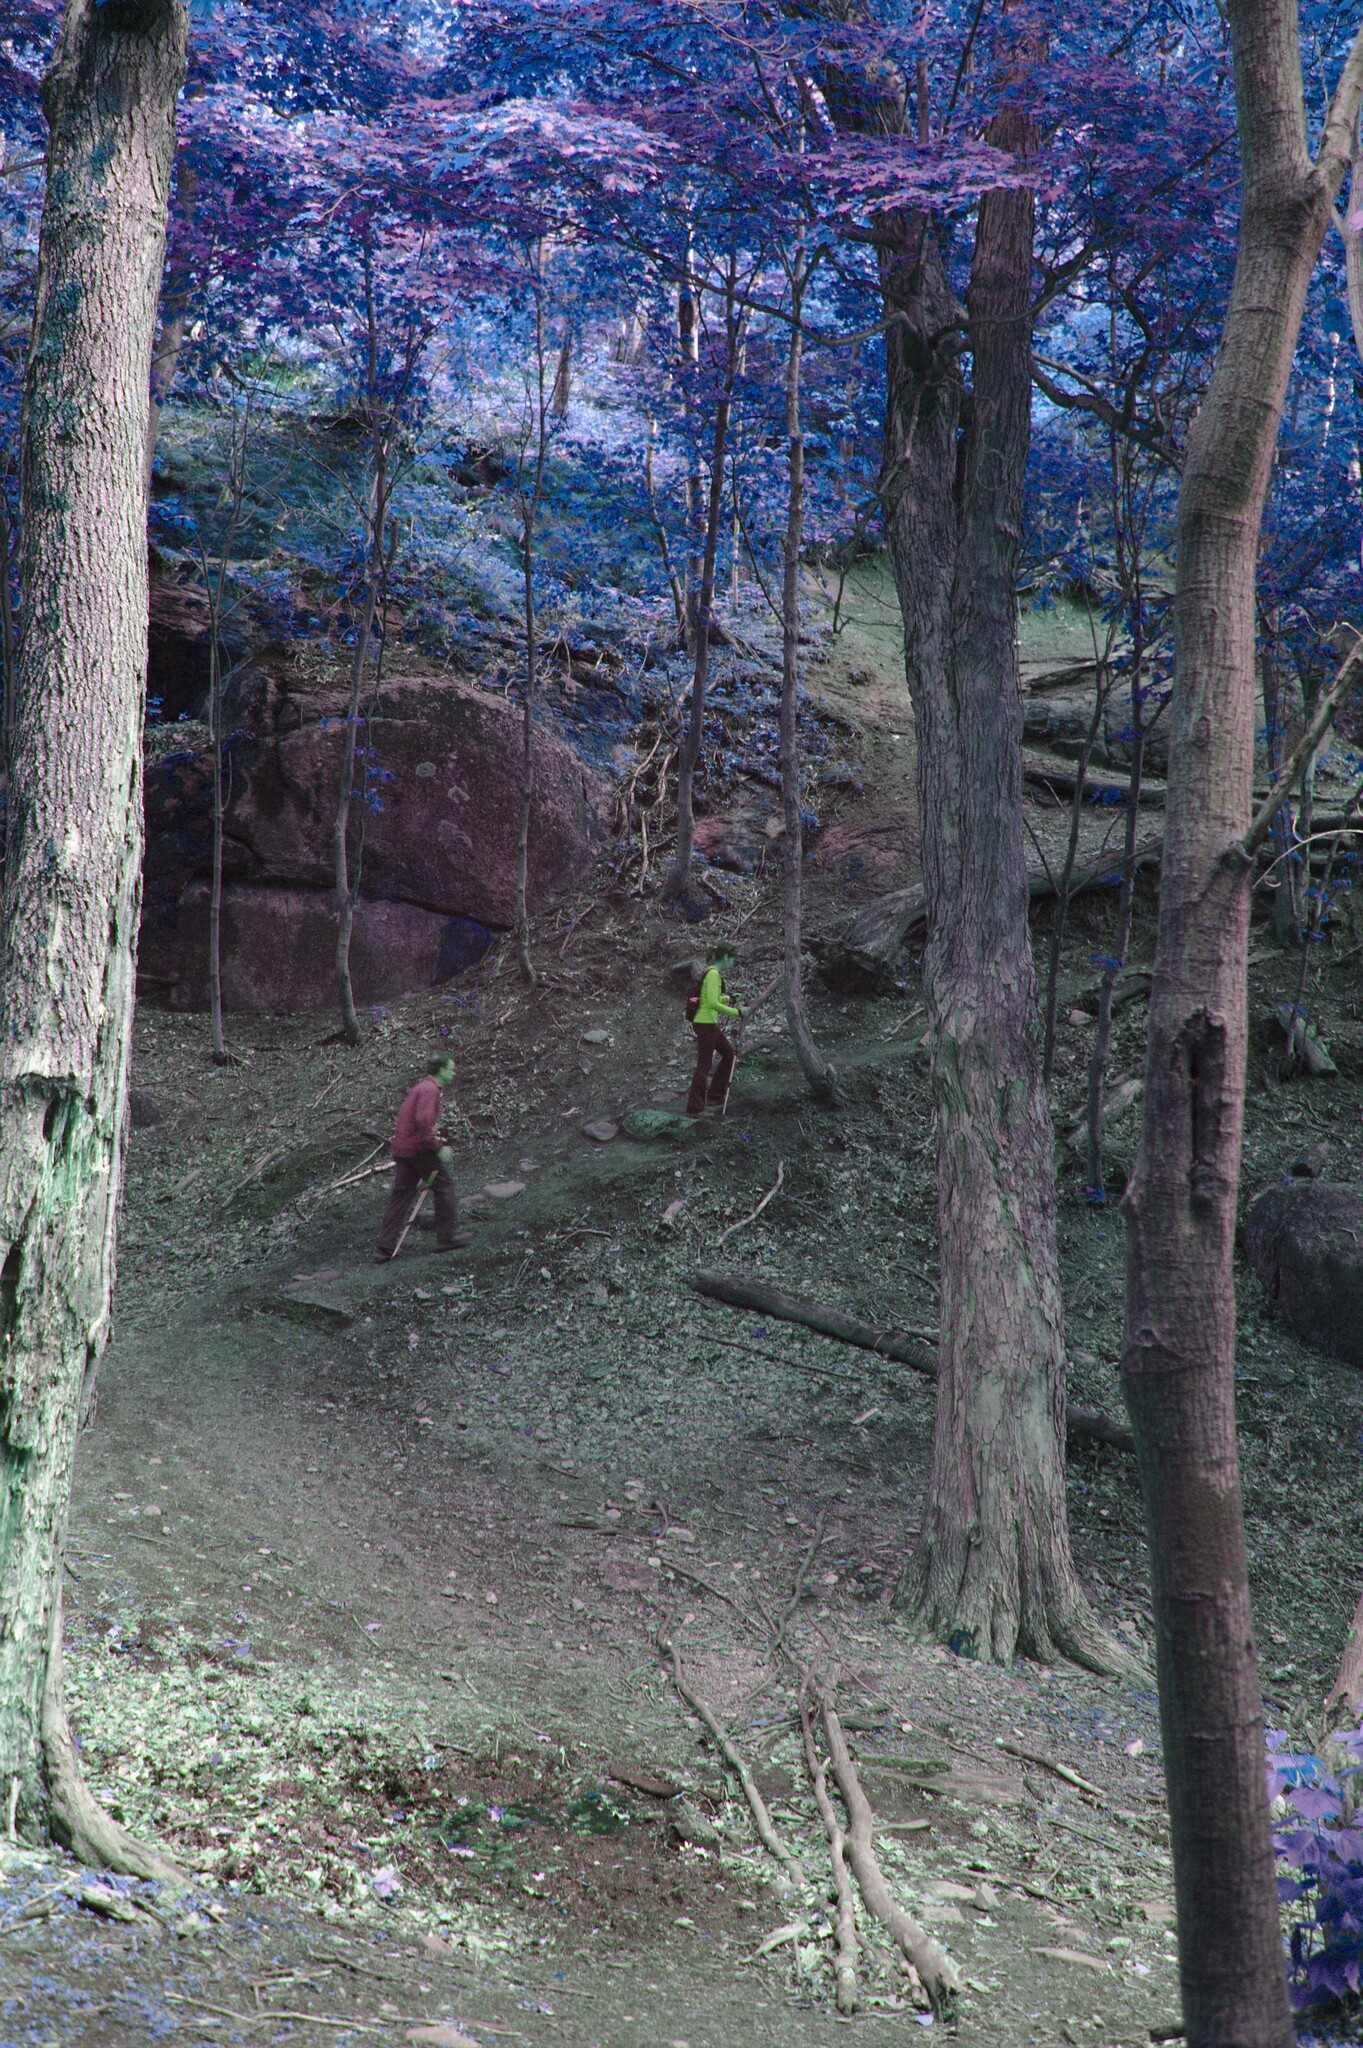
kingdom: Plantae
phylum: Tracheophyta
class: Magnoliopsida
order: Sapindales
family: Sapindaceae
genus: Acer
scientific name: Acer saccharum
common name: Sugar maple
